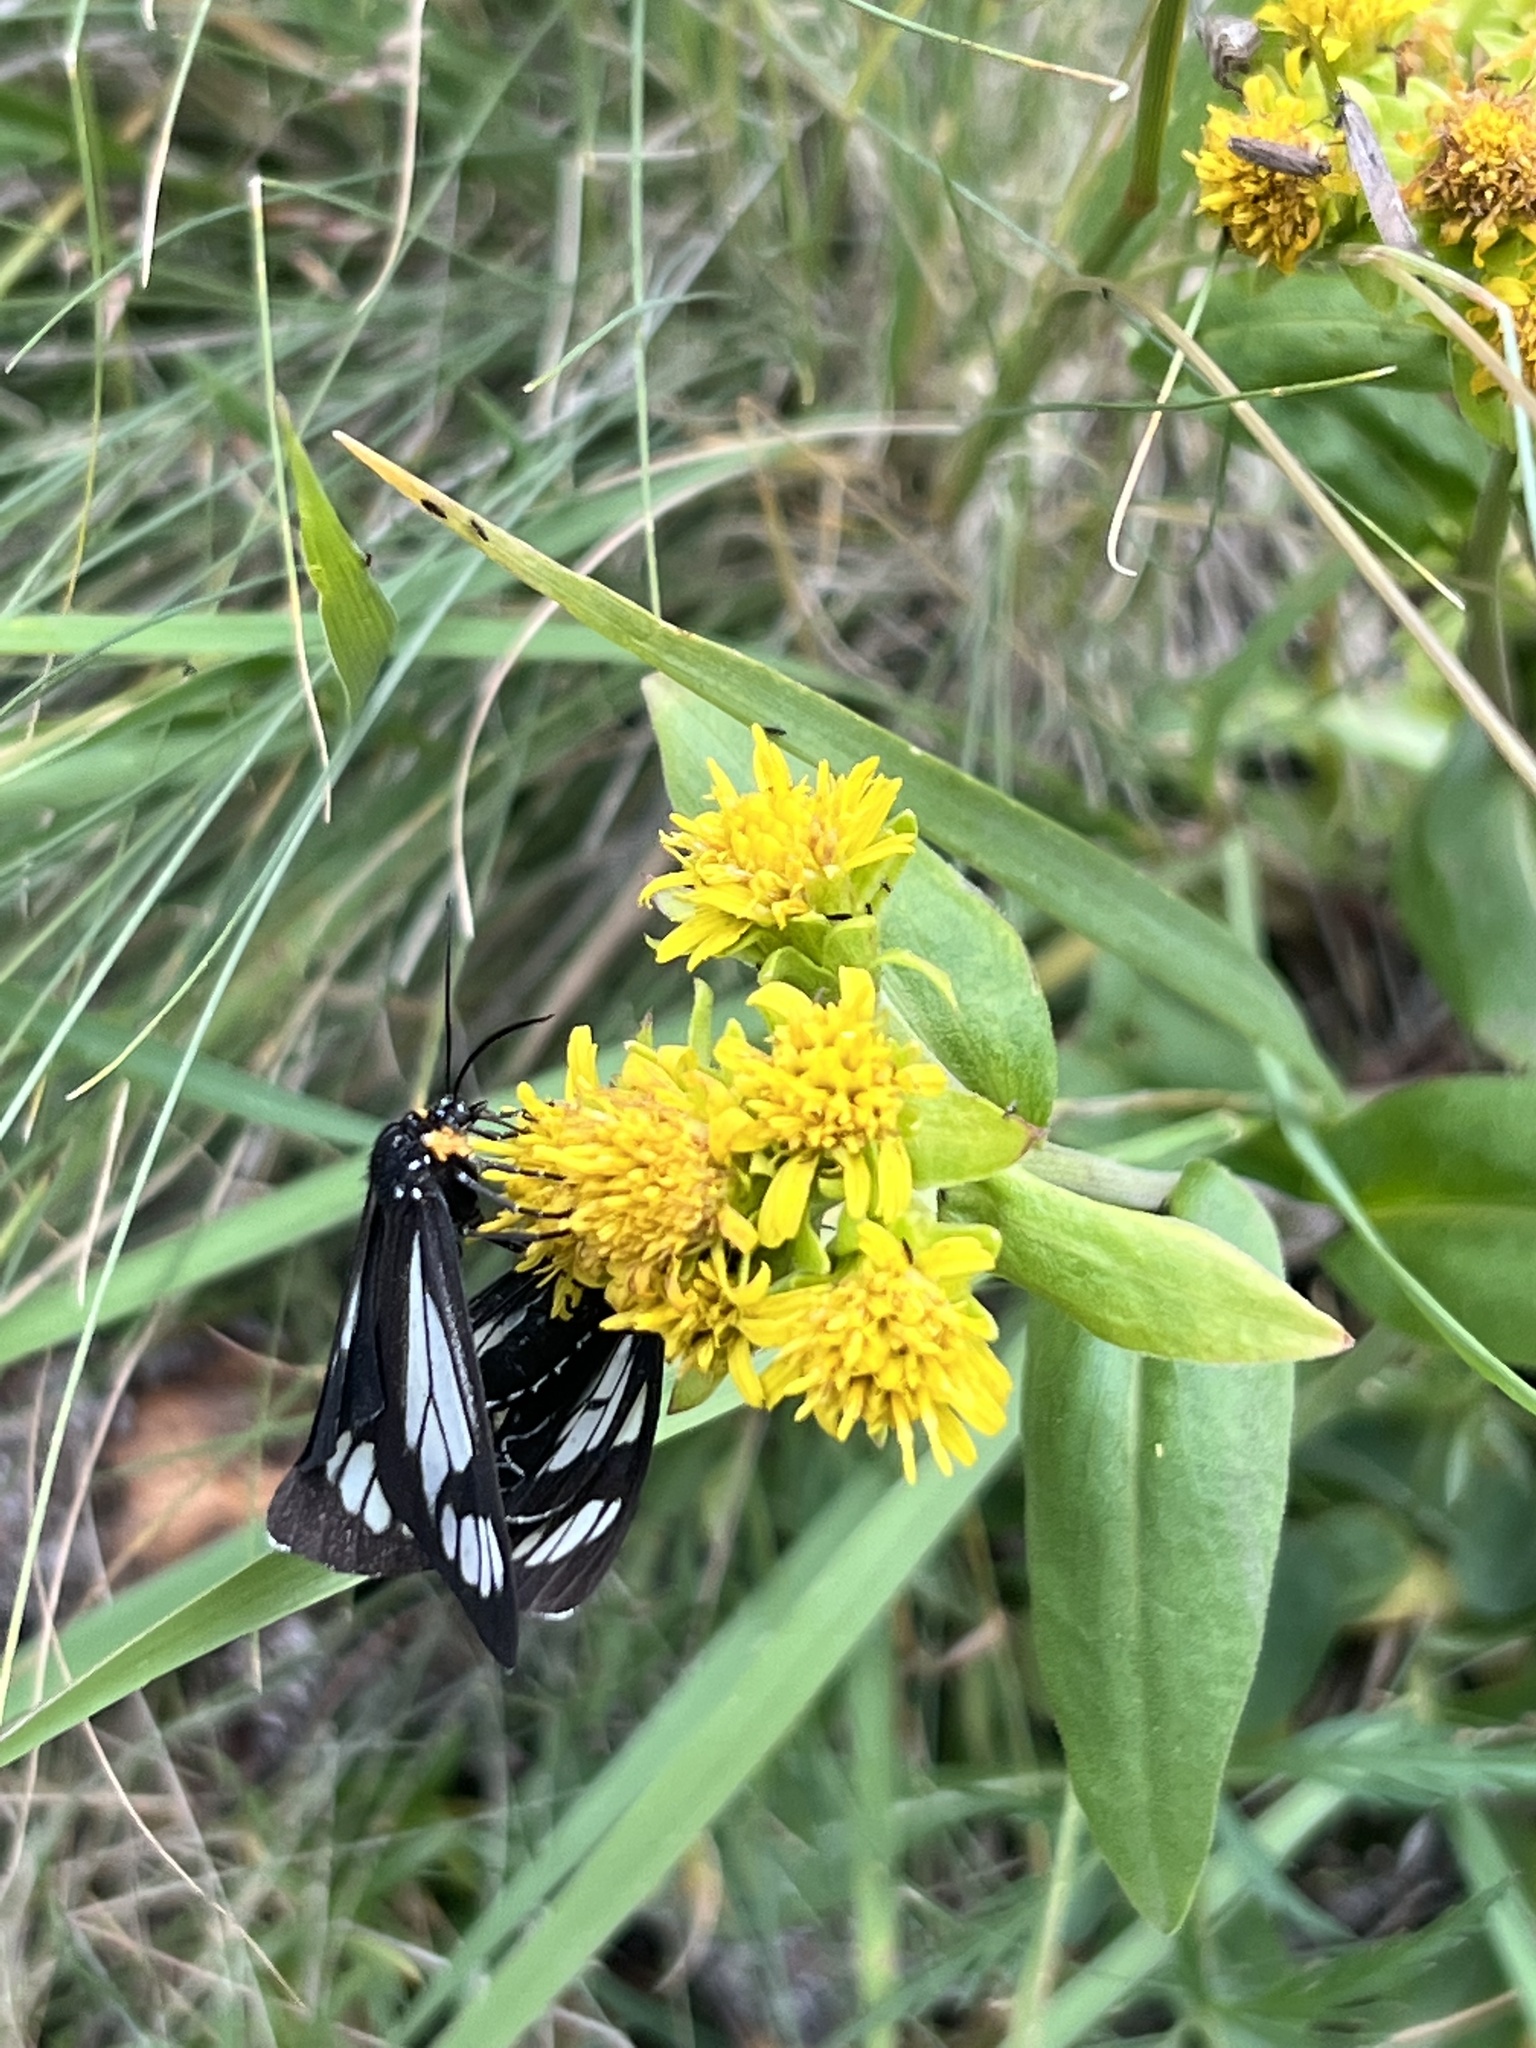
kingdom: Animalia
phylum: Arthropoda
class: Insecta
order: Lepidoptera
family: Erebidae
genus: Gnophaela
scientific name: Gnophaela vermiculata
